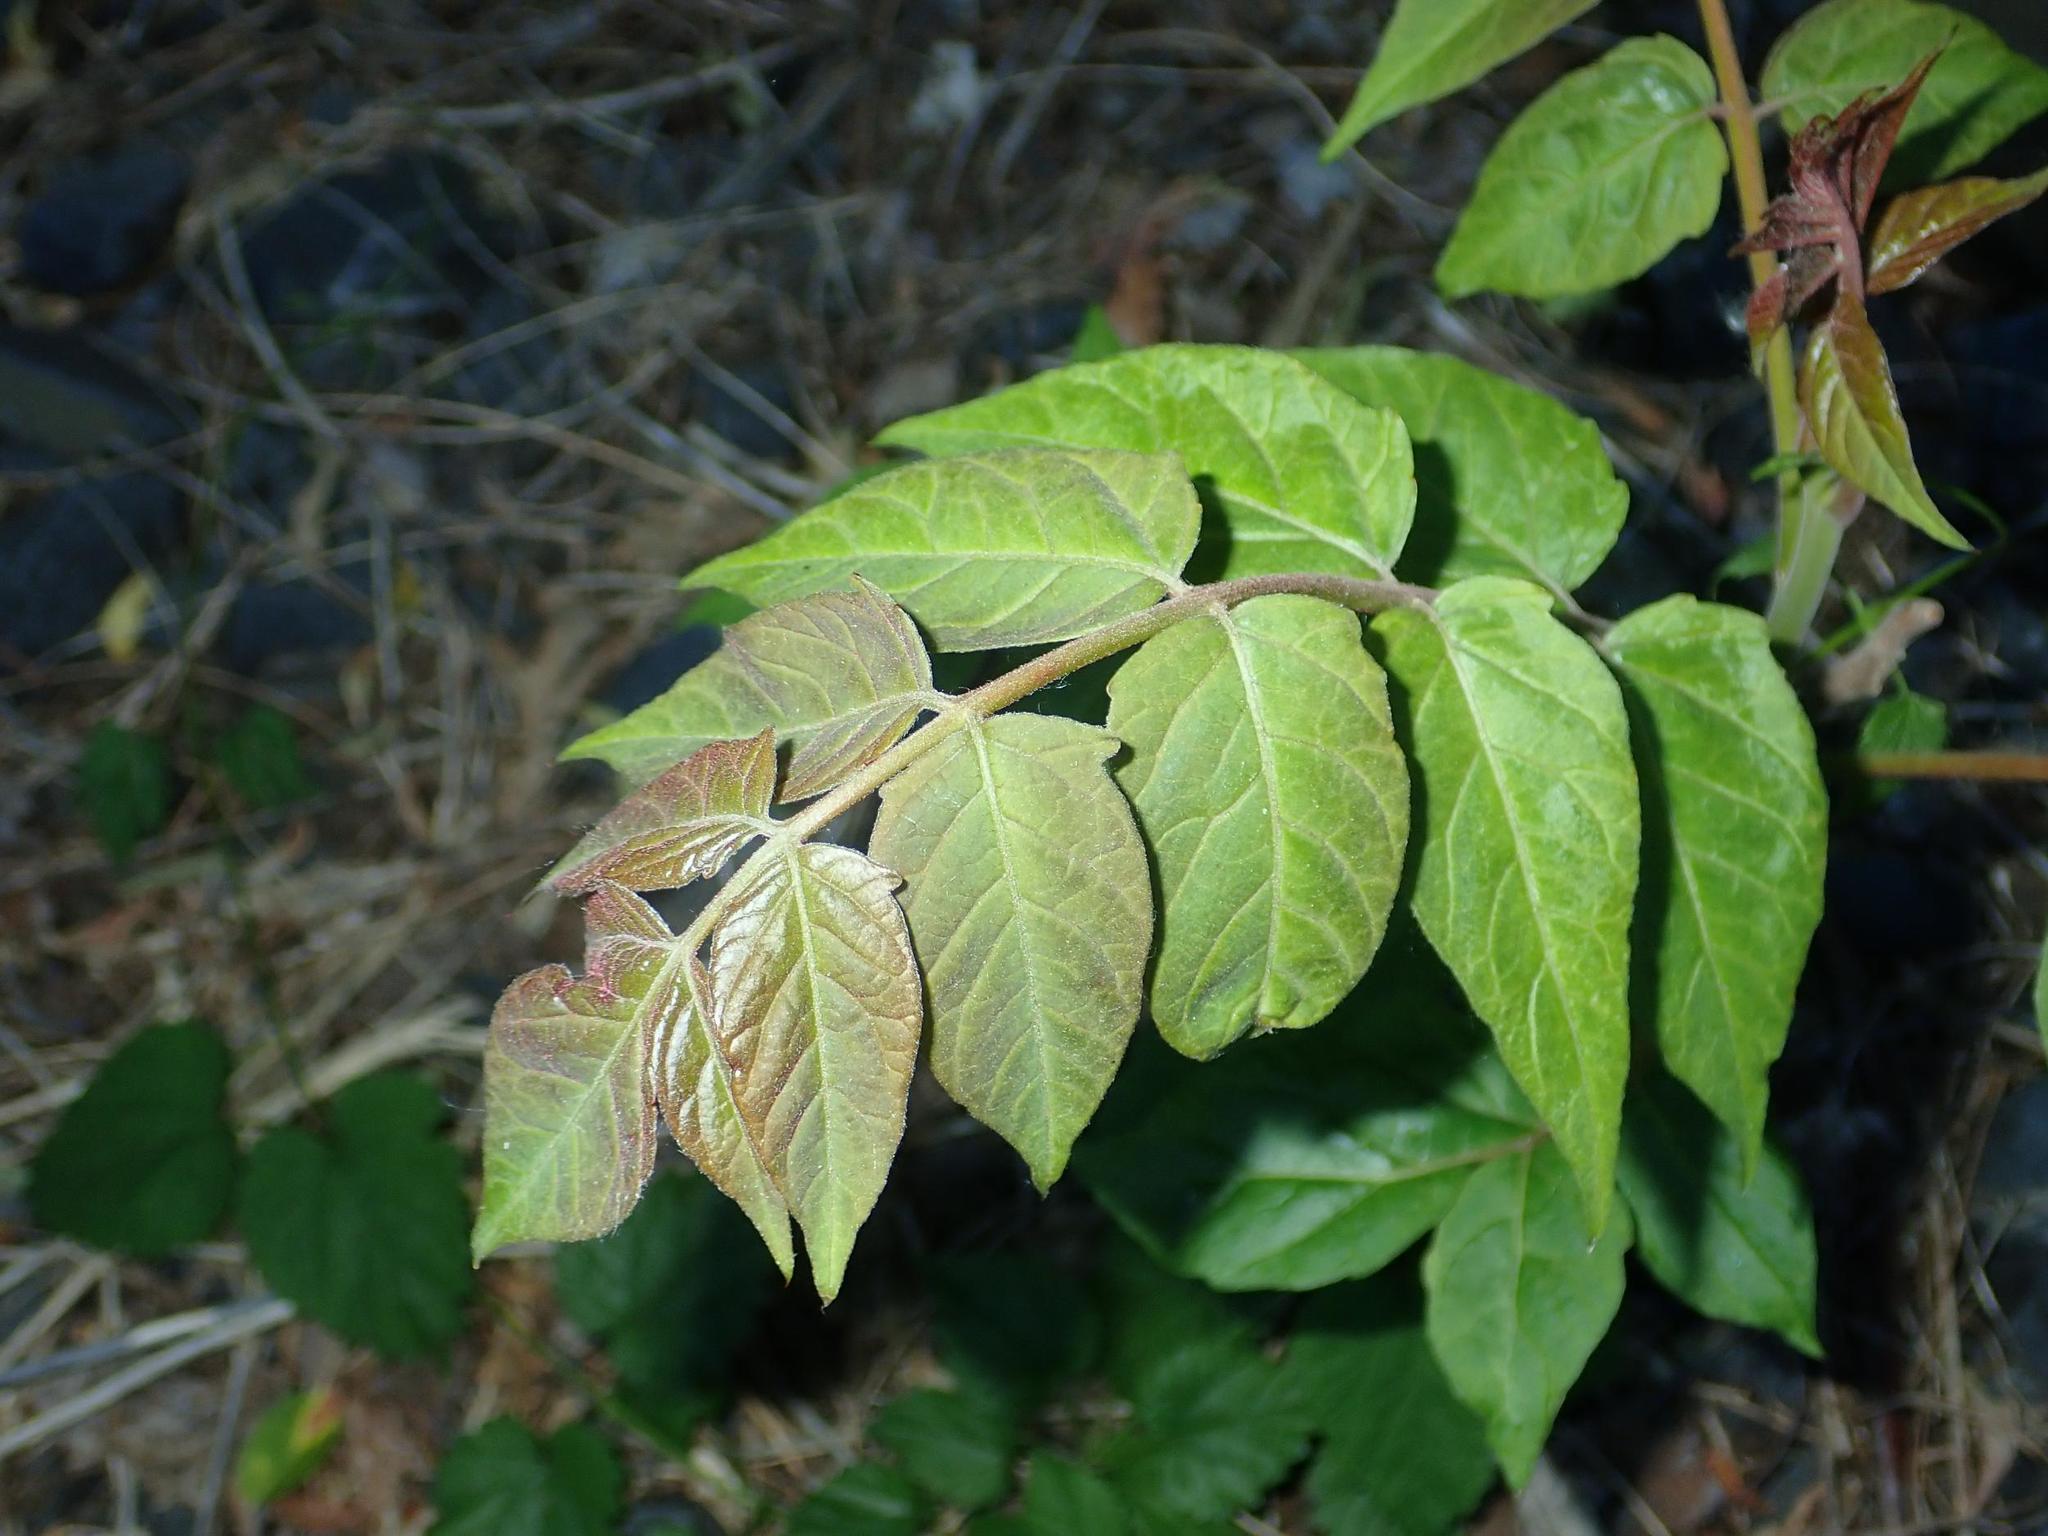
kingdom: Plantae
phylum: Tracheophyta
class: Magnoliopsida
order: Sapindales
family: Simaroubaceae
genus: Ailanthus
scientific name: Ailanthus altissima
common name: Tree-of-heaven
